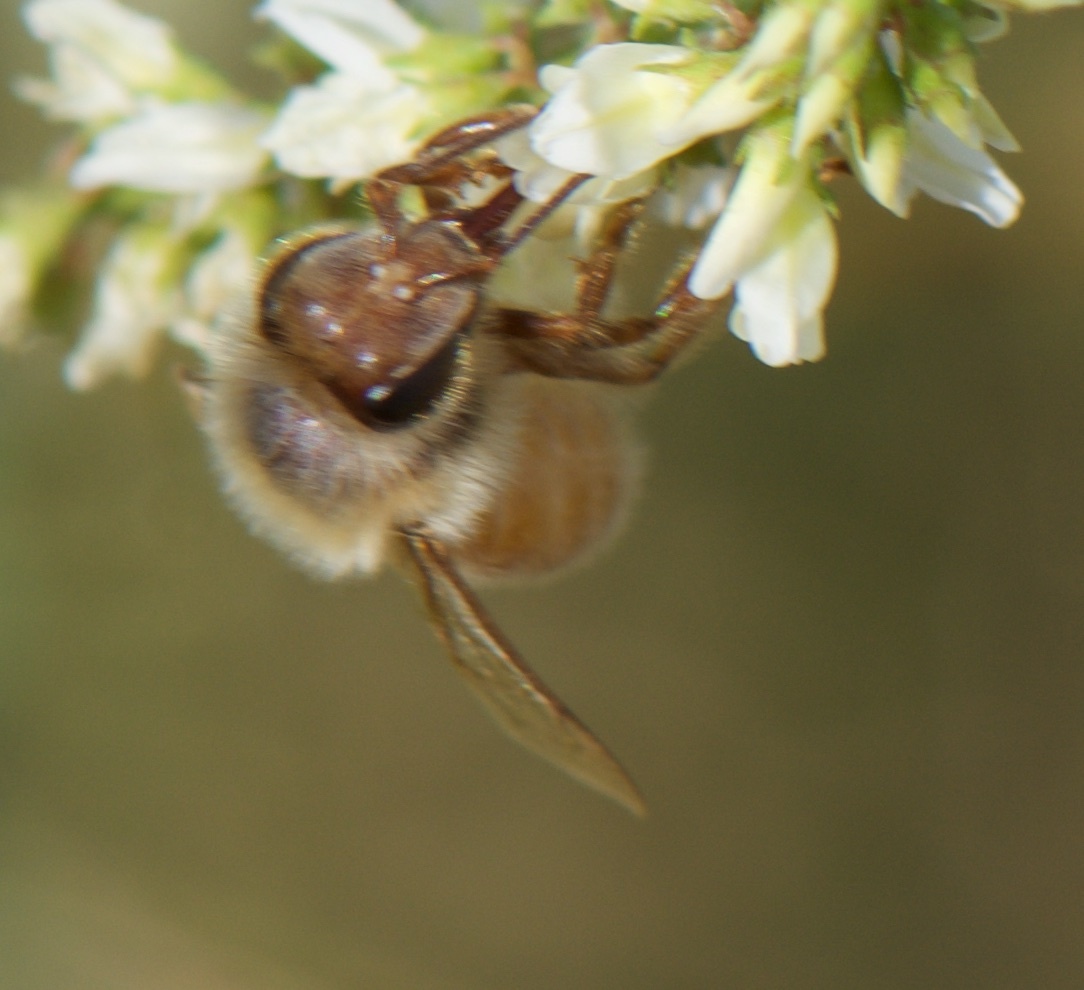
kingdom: Animalia
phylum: Arthropoda
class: Insecta
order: Hymenoptera
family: Apidae
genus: Apis
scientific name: Apis mellifera
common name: Honey bee
